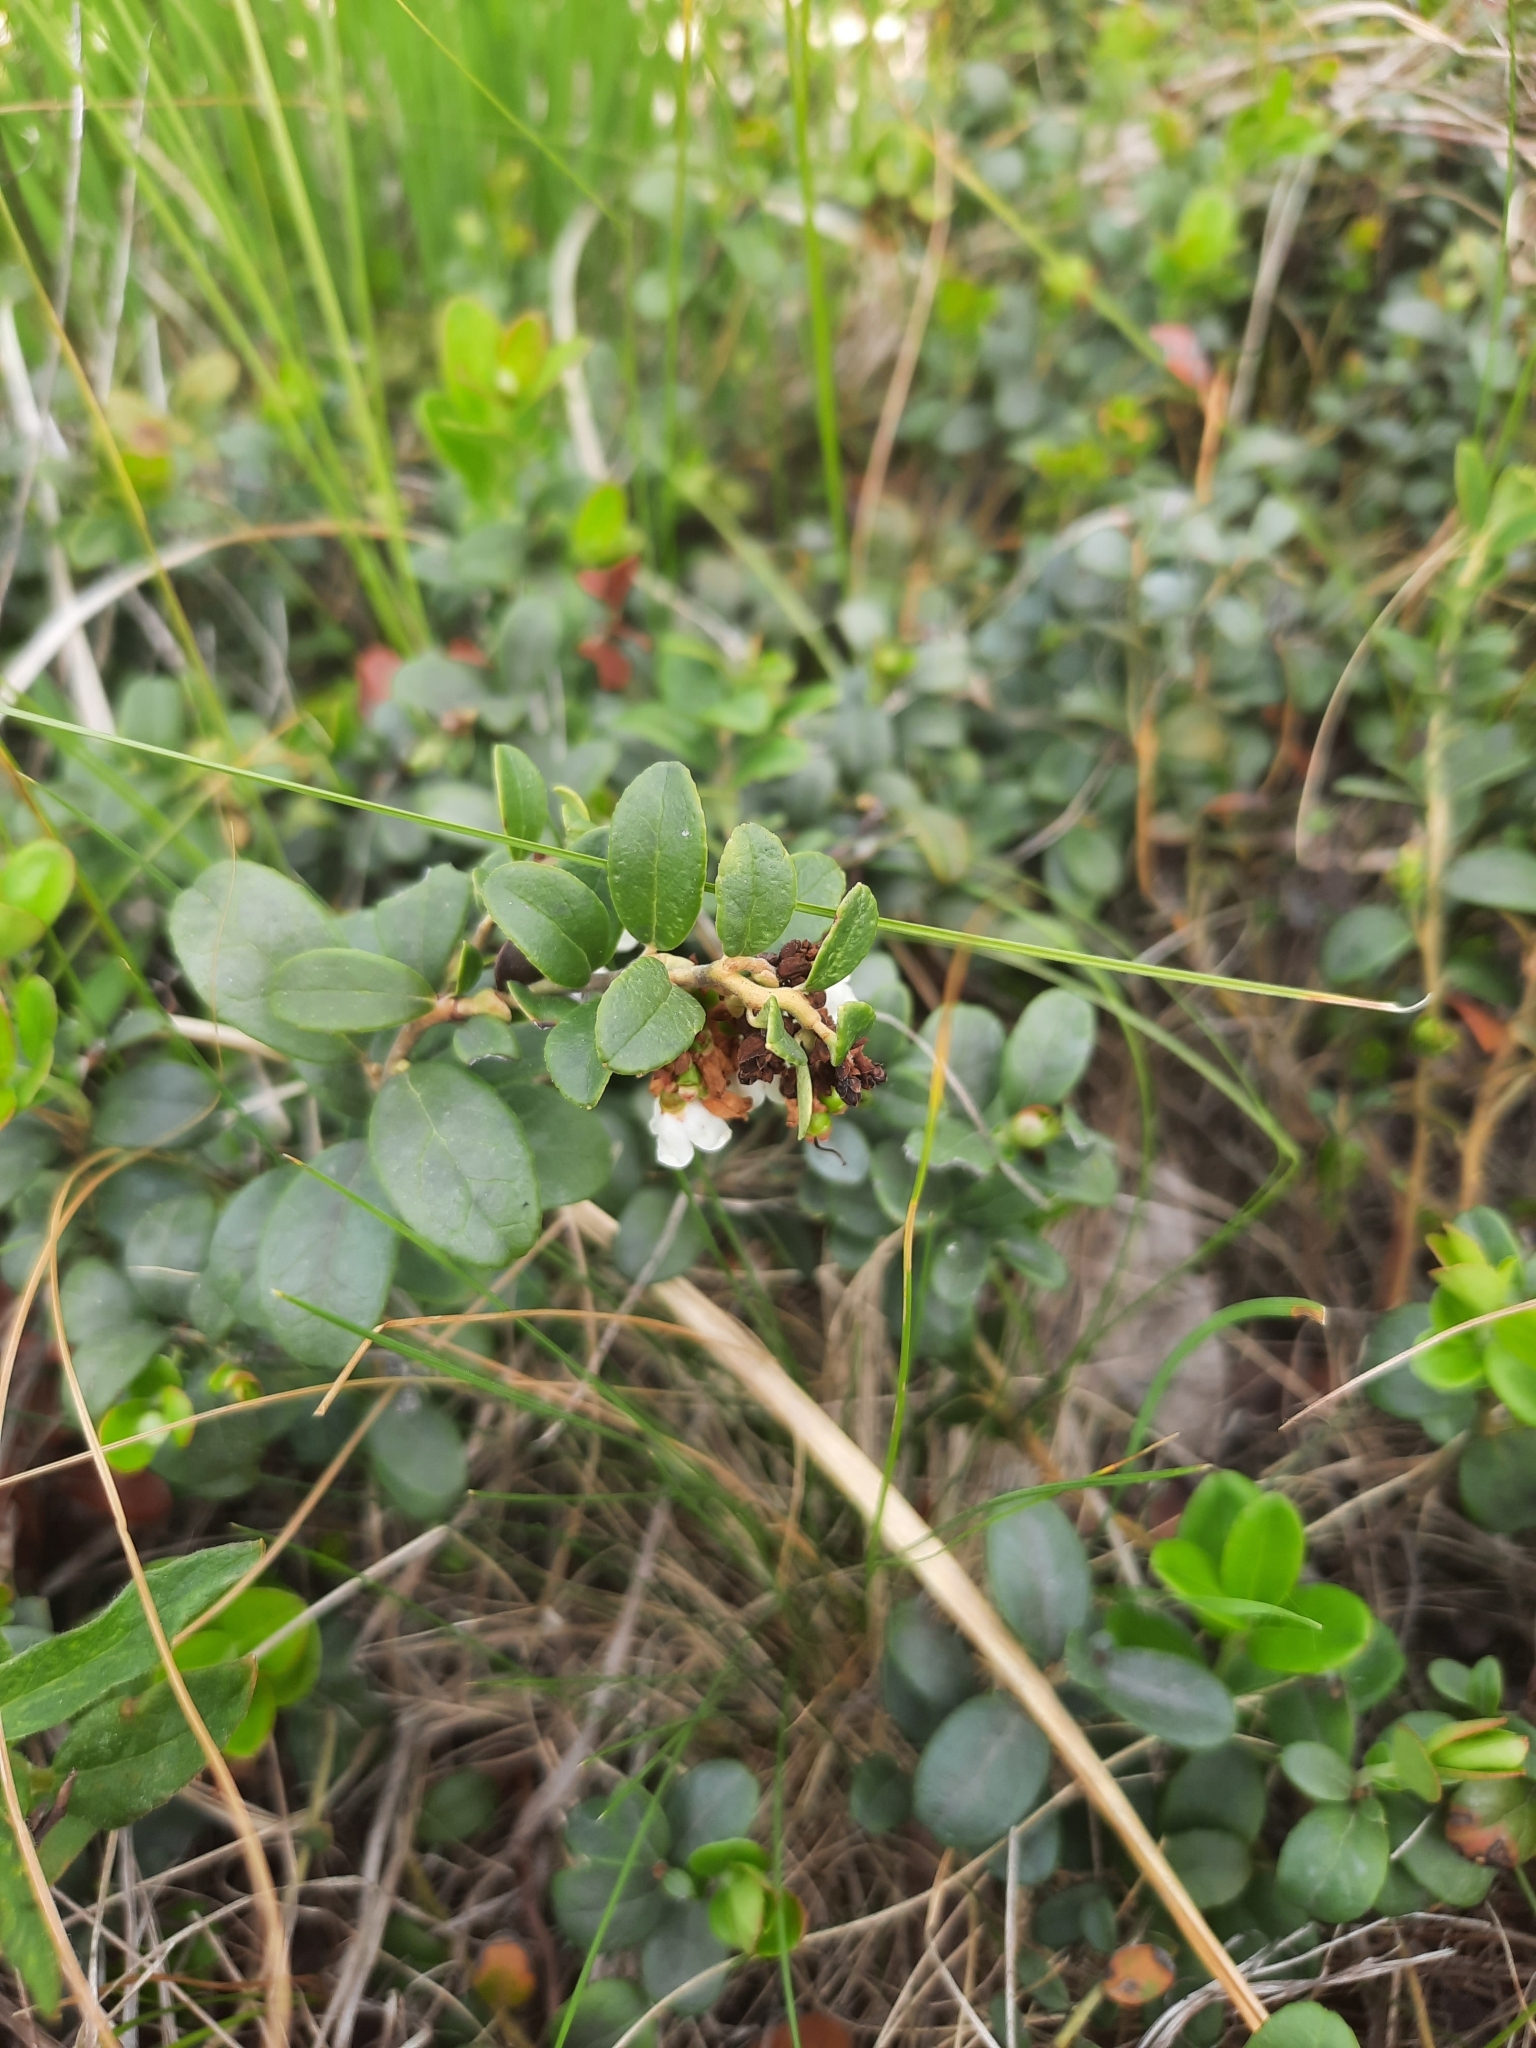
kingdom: Plantae
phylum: Tracheophyta
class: Magnoliopsida
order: Ericales
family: Ericaceae
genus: Vaccinium
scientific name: Vaccinium vitis-idaea
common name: Cowberry
